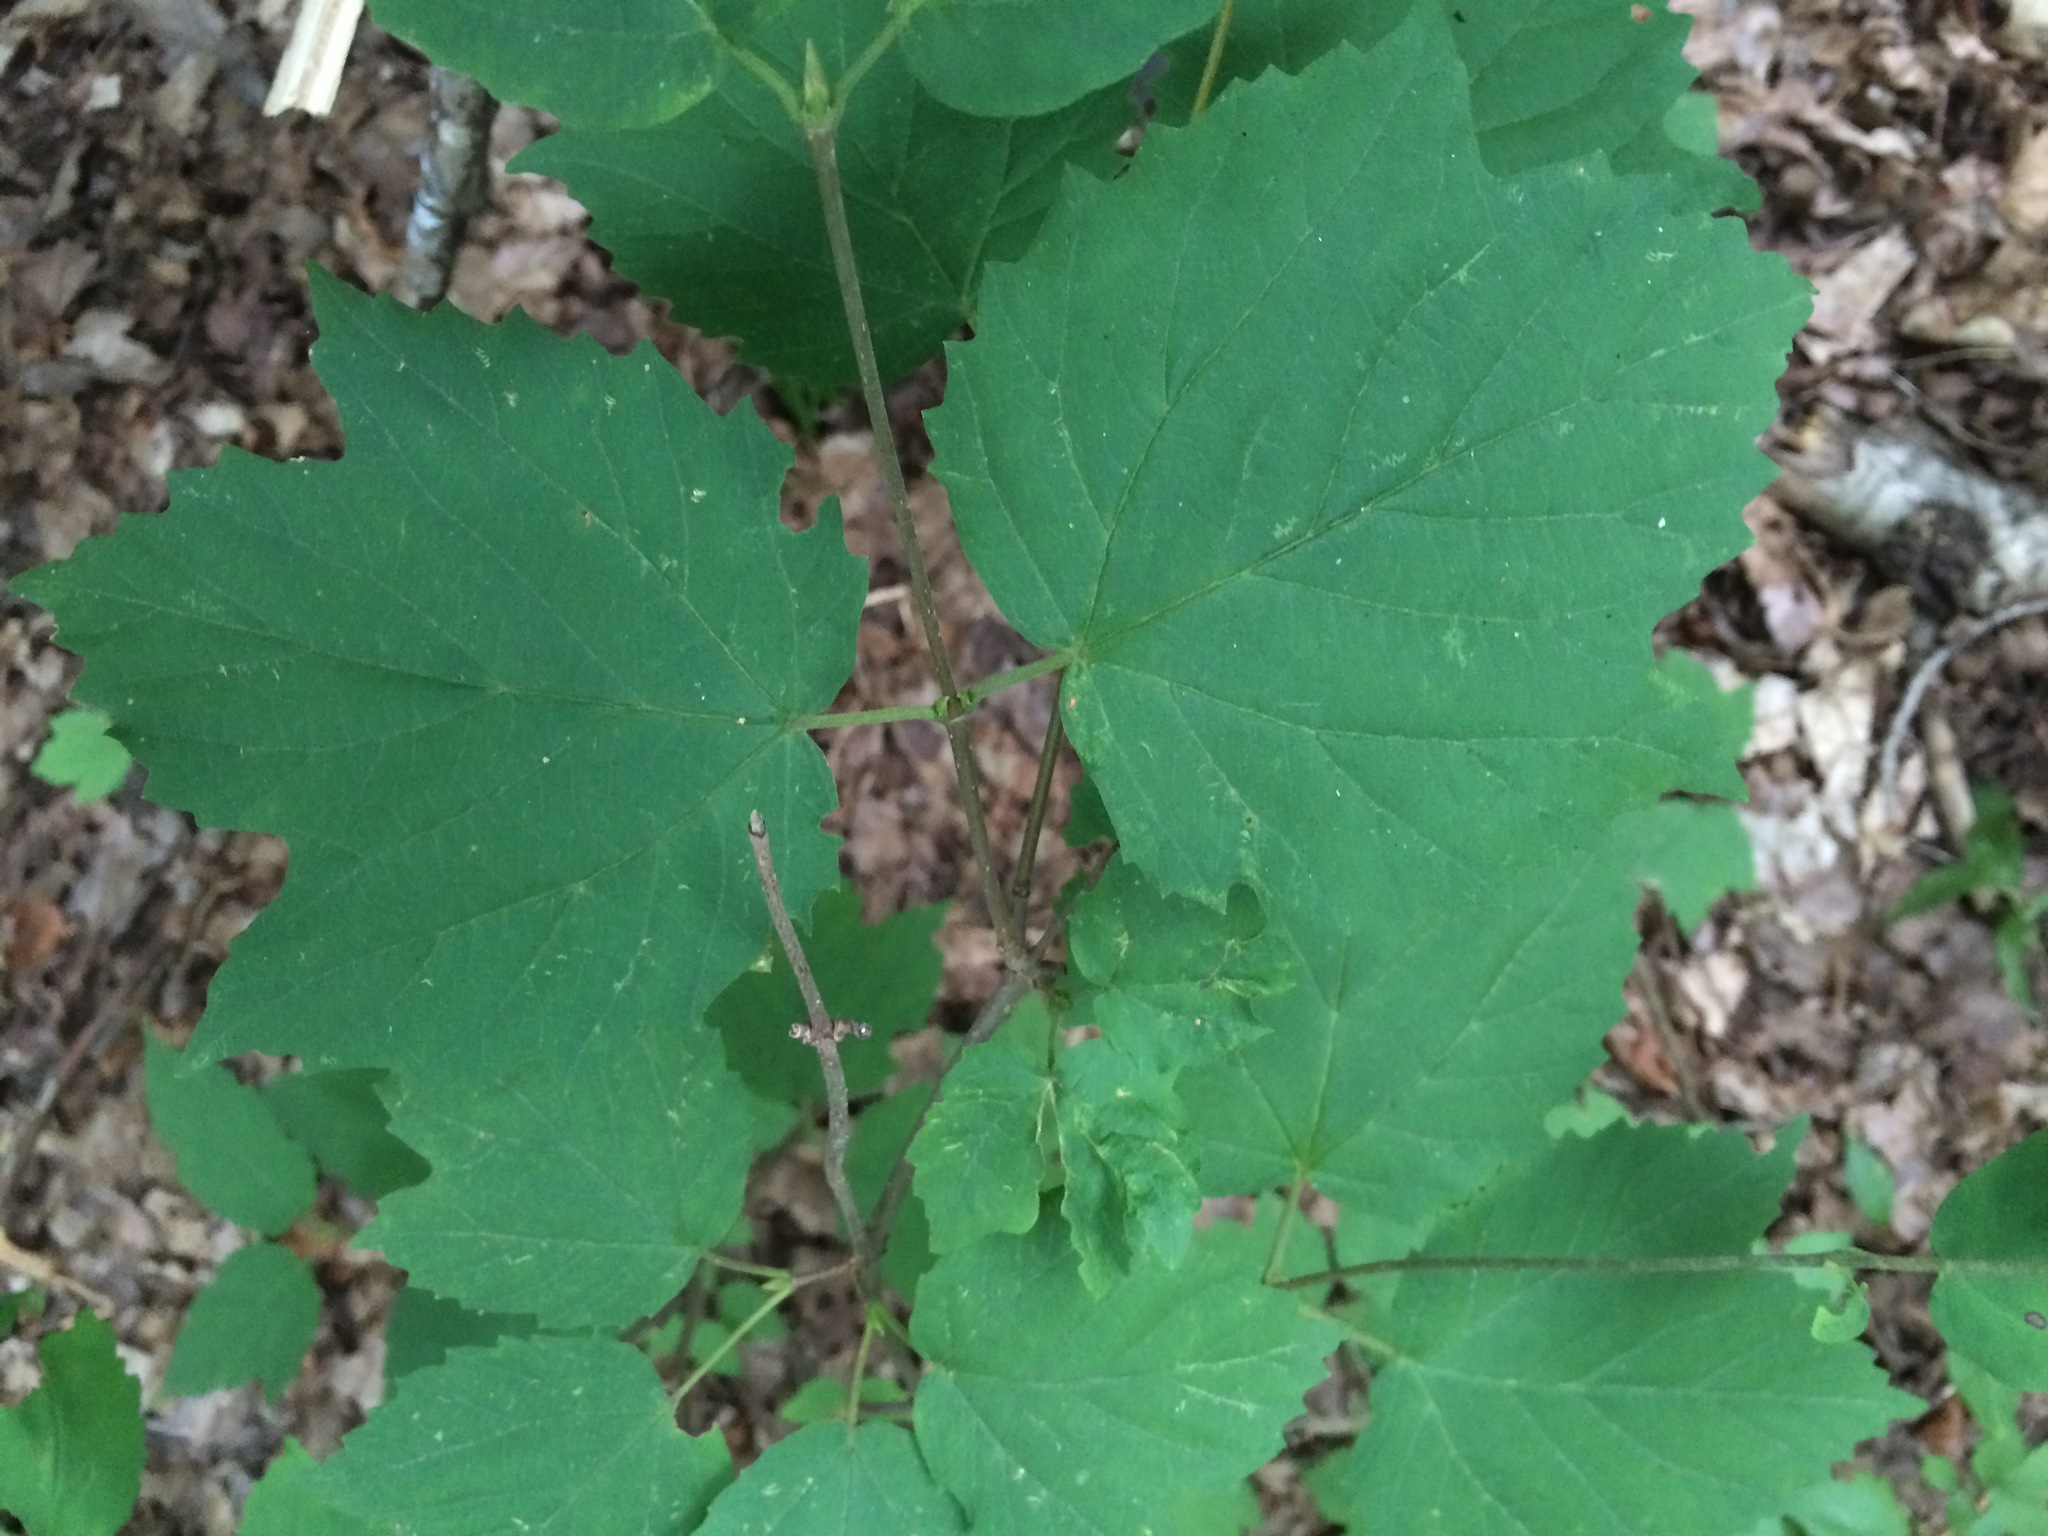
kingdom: Plantae
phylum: Tracheophyta
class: Magnoliopsida
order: Dipsacales
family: Viburnaceae
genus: Viburnum
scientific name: Viburnum acerifolium
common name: Dockmackie
